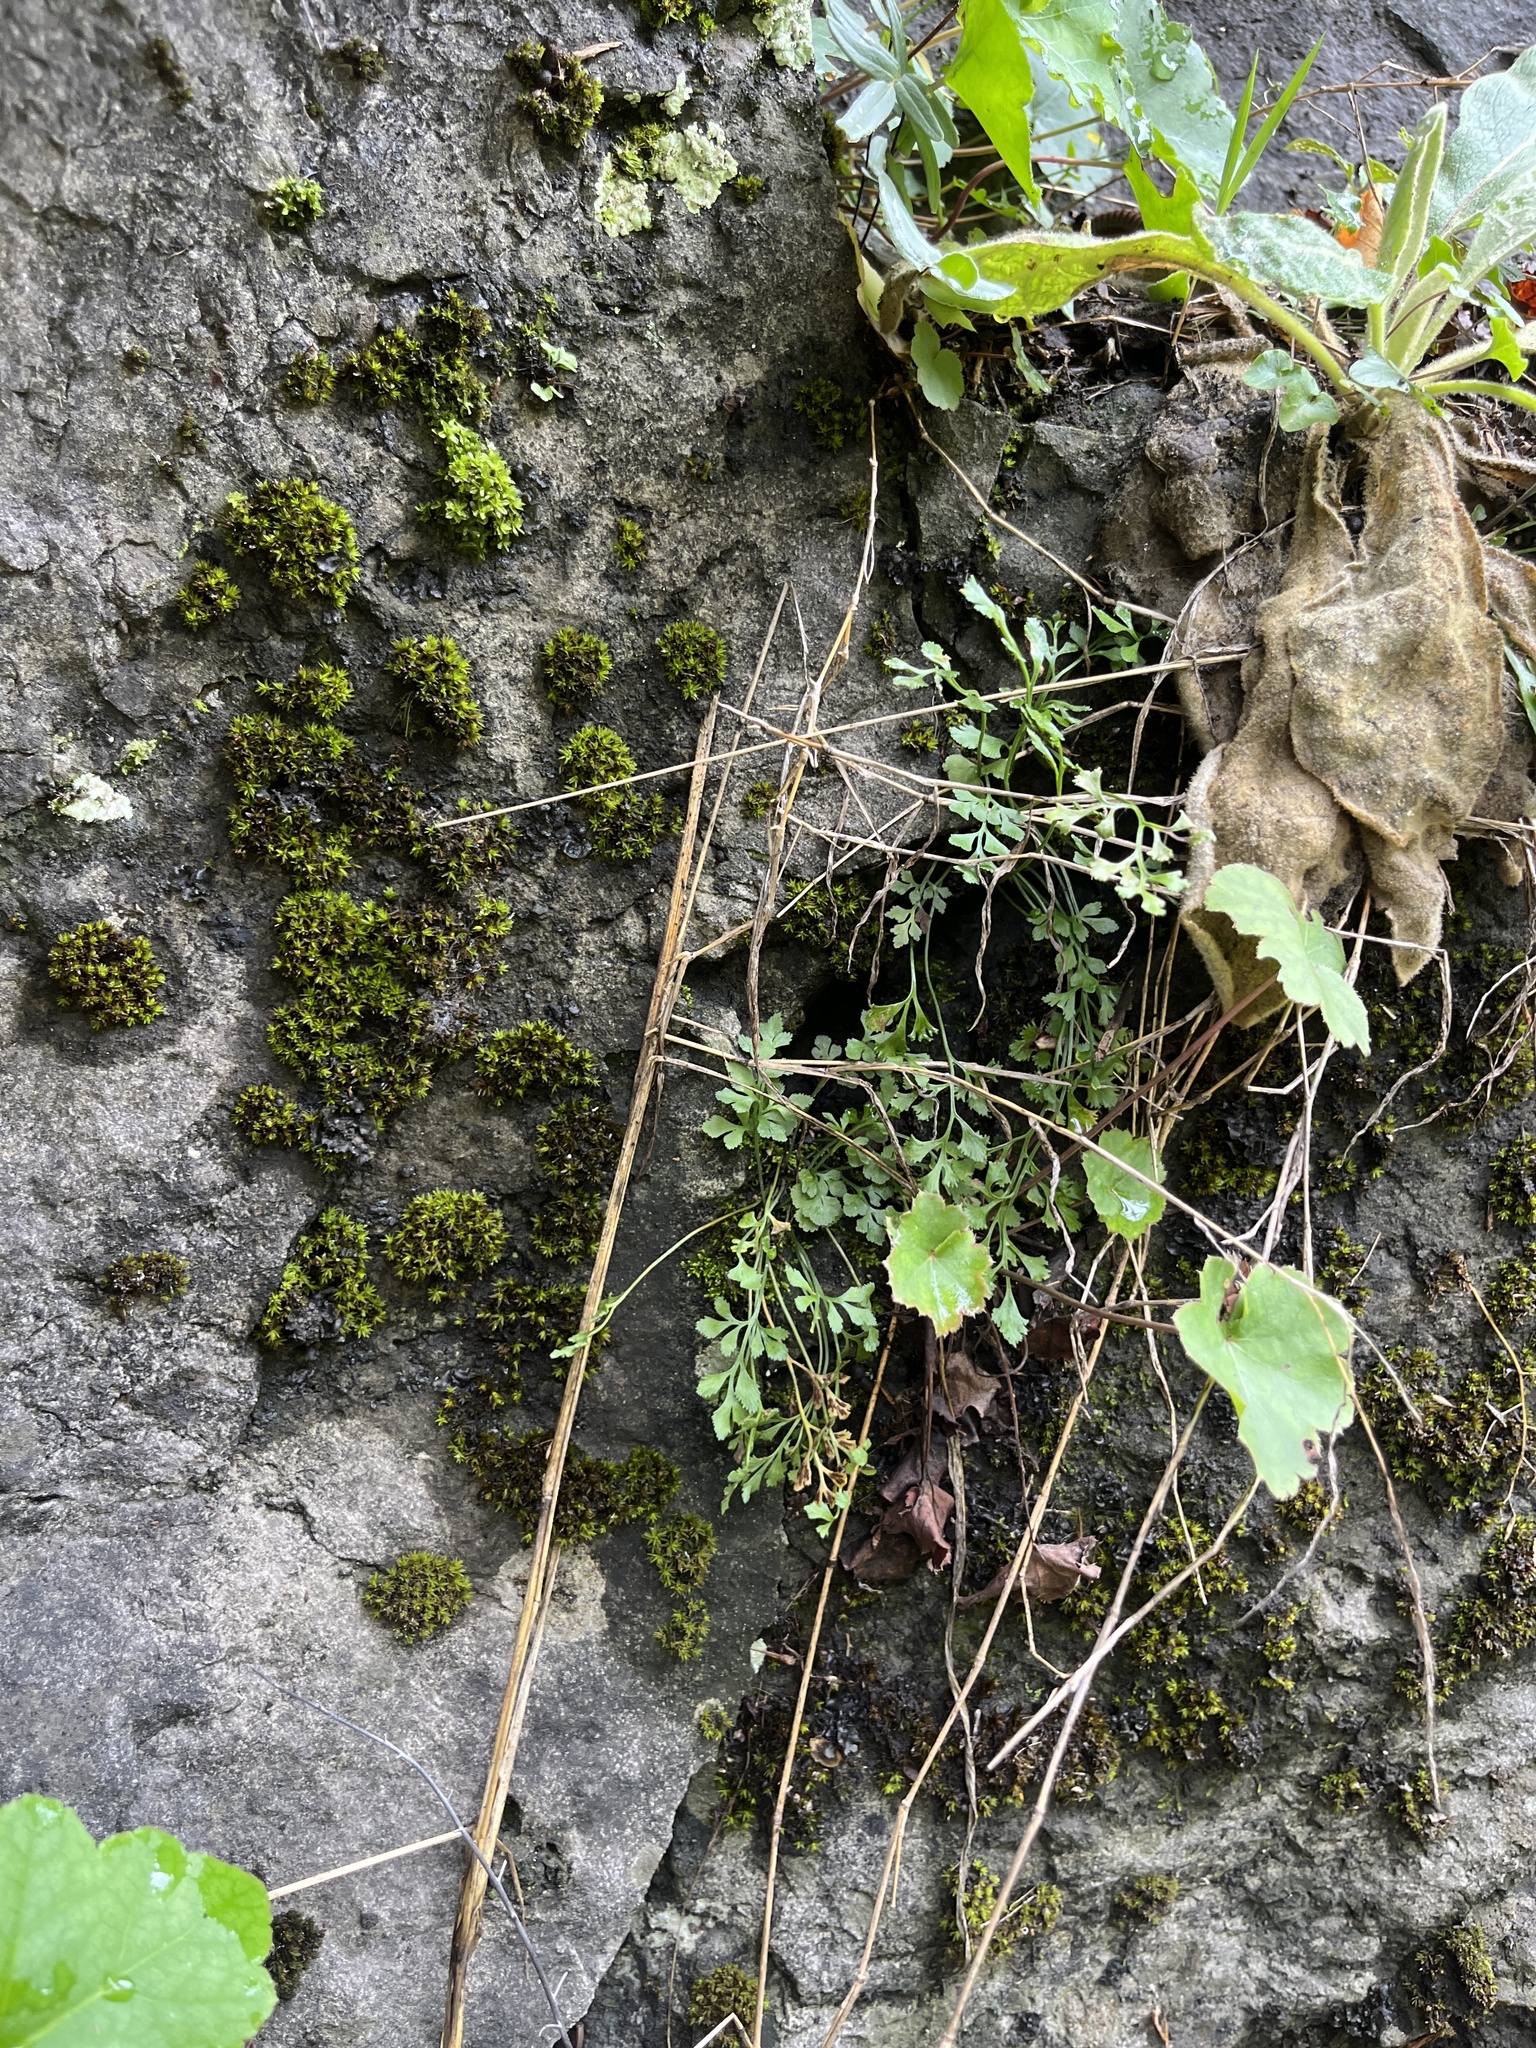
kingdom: Plantae
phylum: Tracheophyta
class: Polypodiopsida
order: Polypodiales
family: Aspleniaceae
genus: Asplenium
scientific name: Asplenium ruta-muraria
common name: Wall-rue
